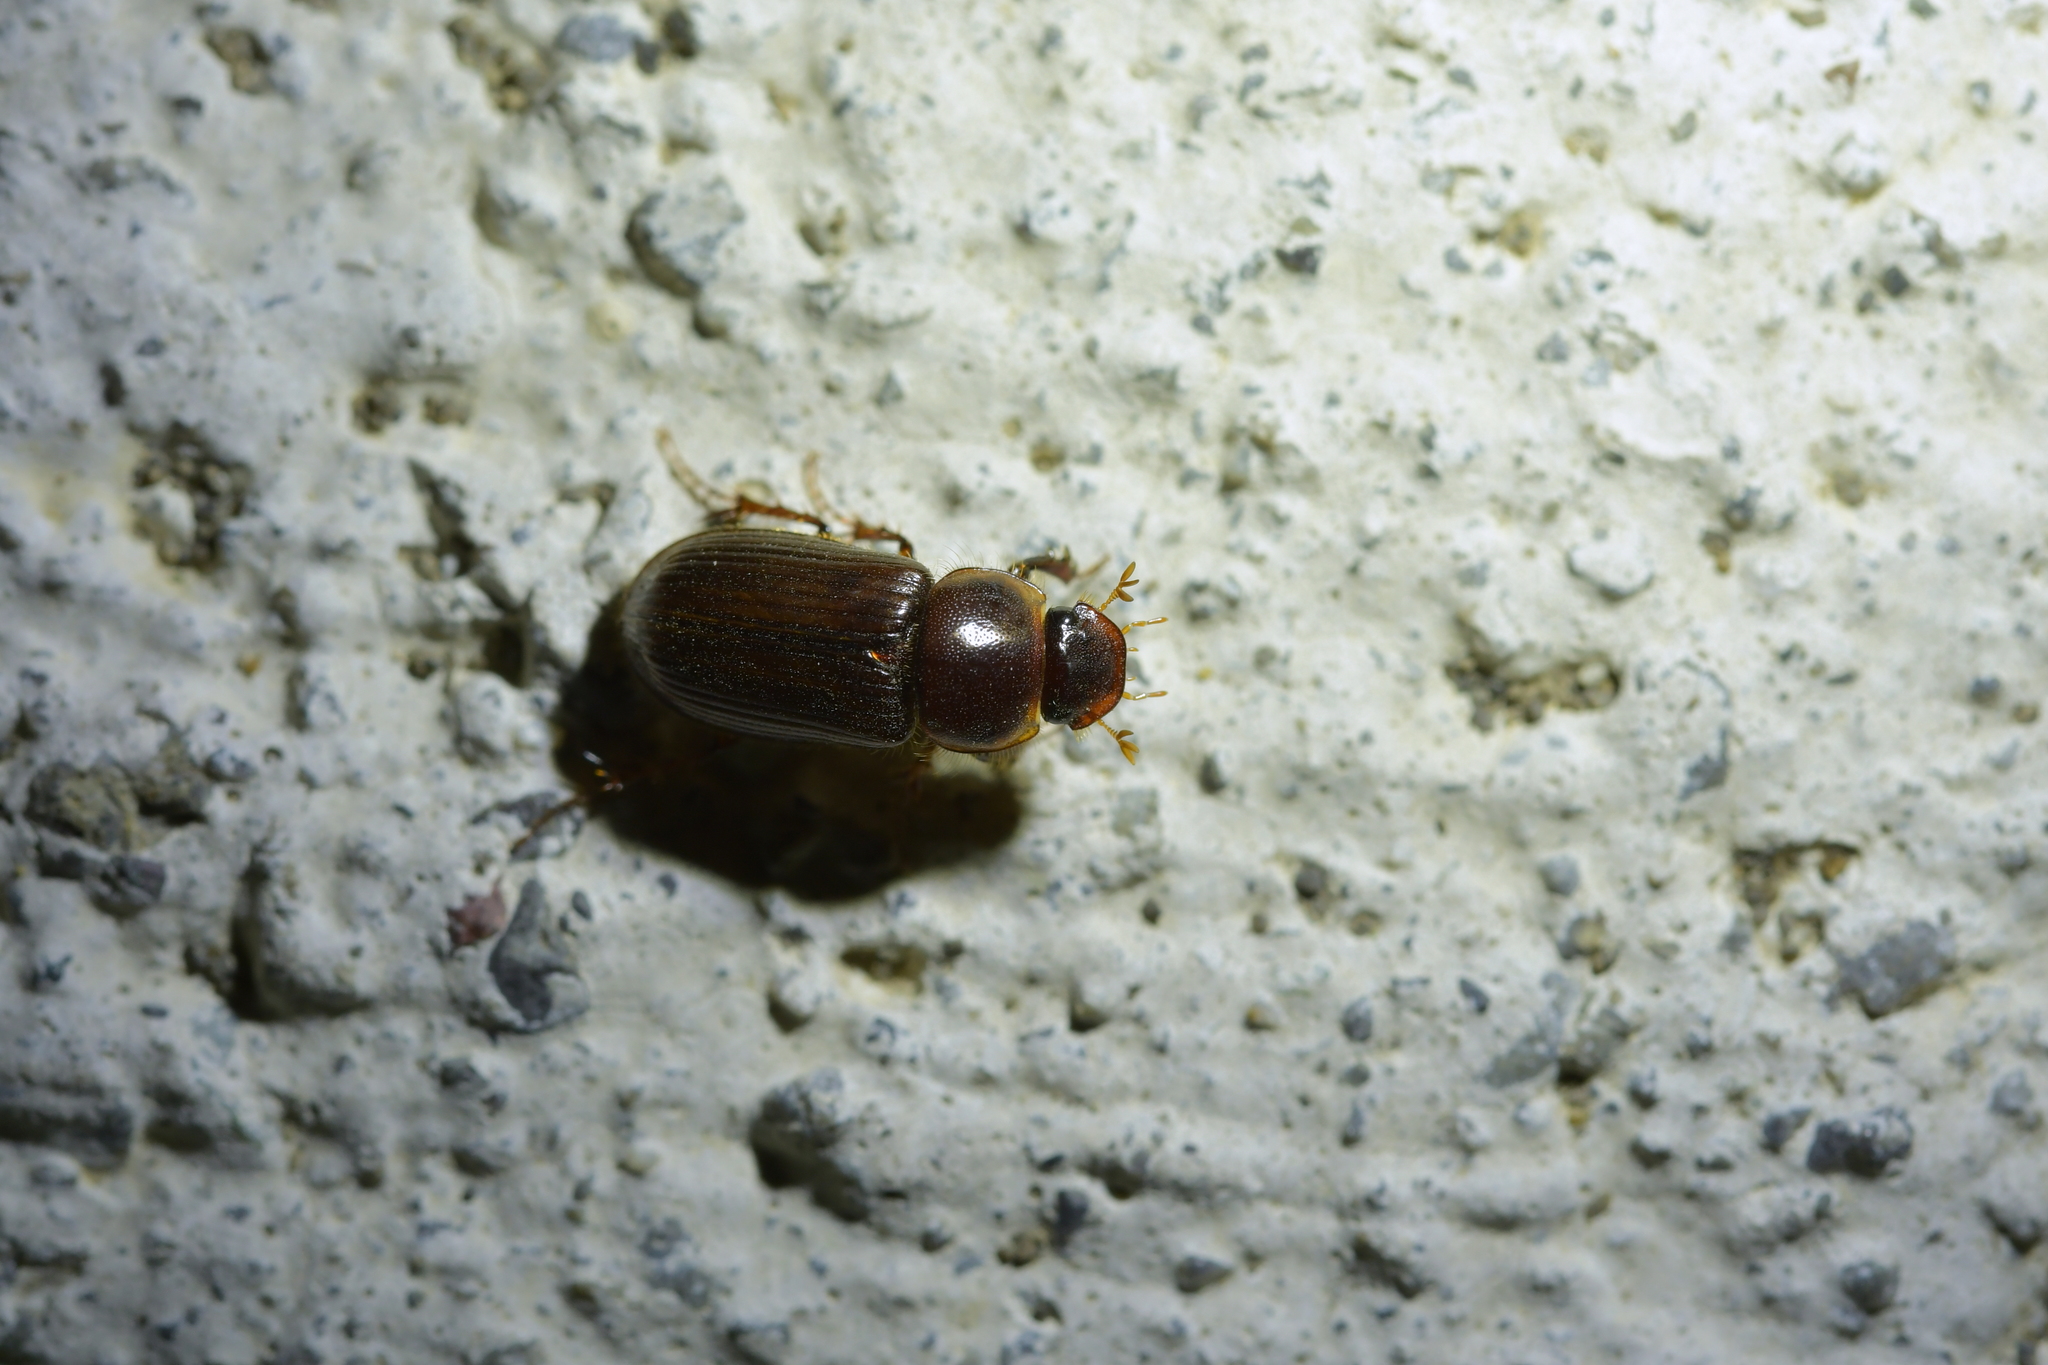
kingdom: Animalia
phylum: Arthropoda
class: Insecta
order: Coleoptera
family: Scarabaeidae
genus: Acrossidius
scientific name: Acrossidius tasmaniae
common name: Black-headed pasture cockchafer
